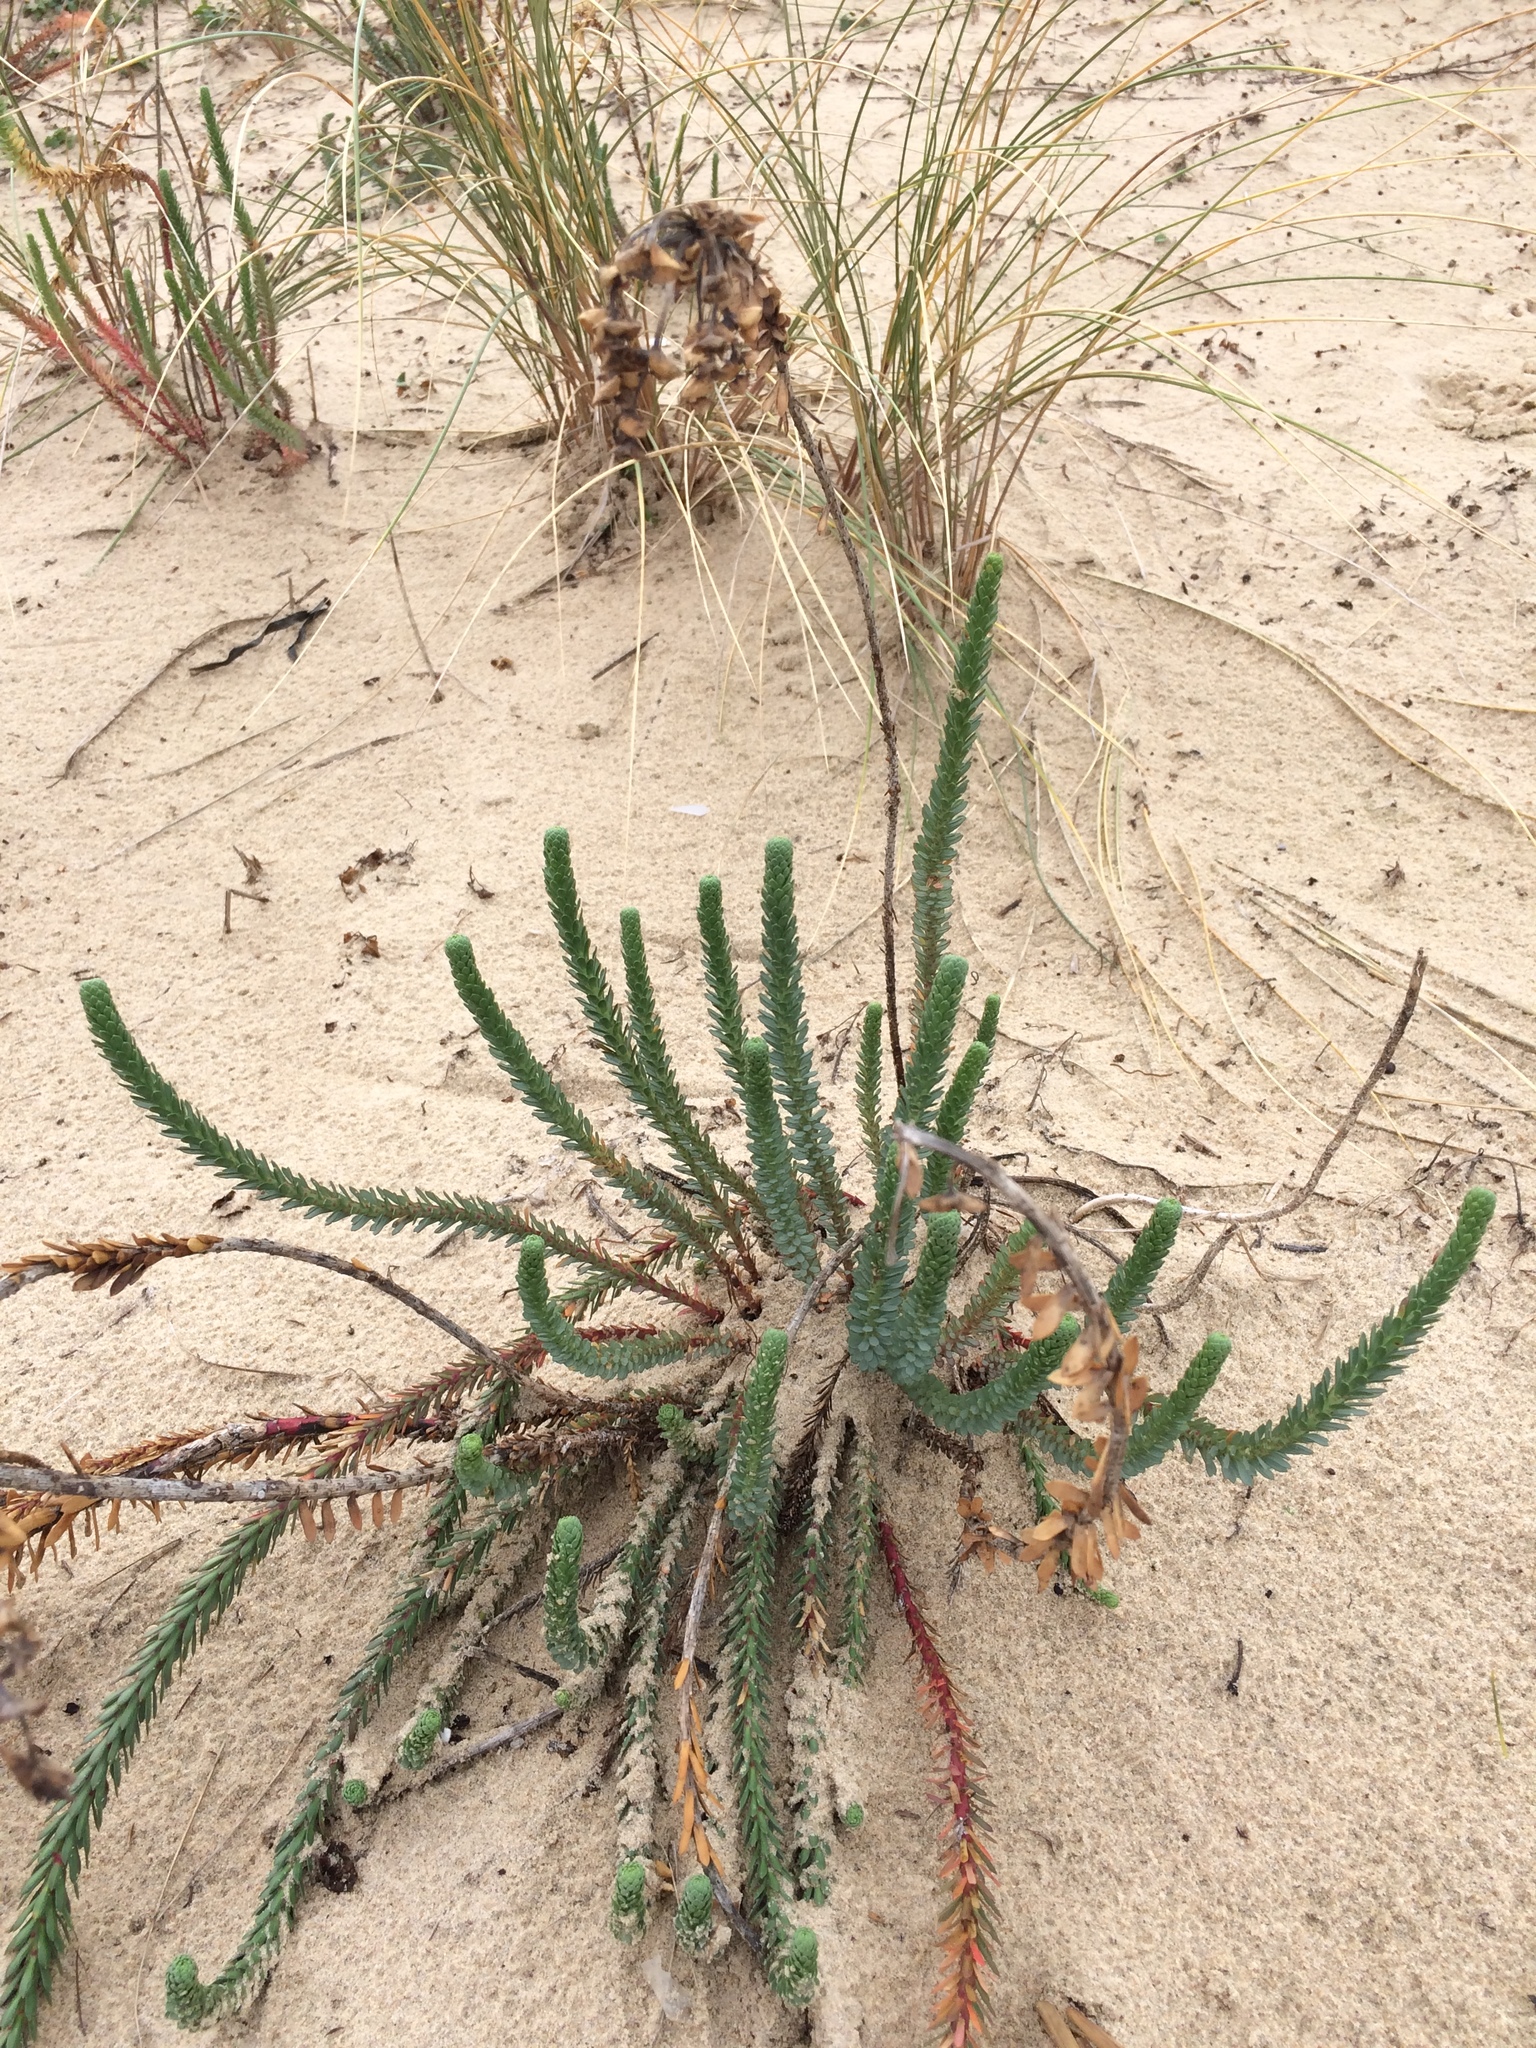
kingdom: Plantae
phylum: Tracheophyta
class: Magnoliopsida
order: Malpighiales
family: Euphorbiaceae
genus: Euphorbia
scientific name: Euphorbia paralias
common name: Sea spurge
